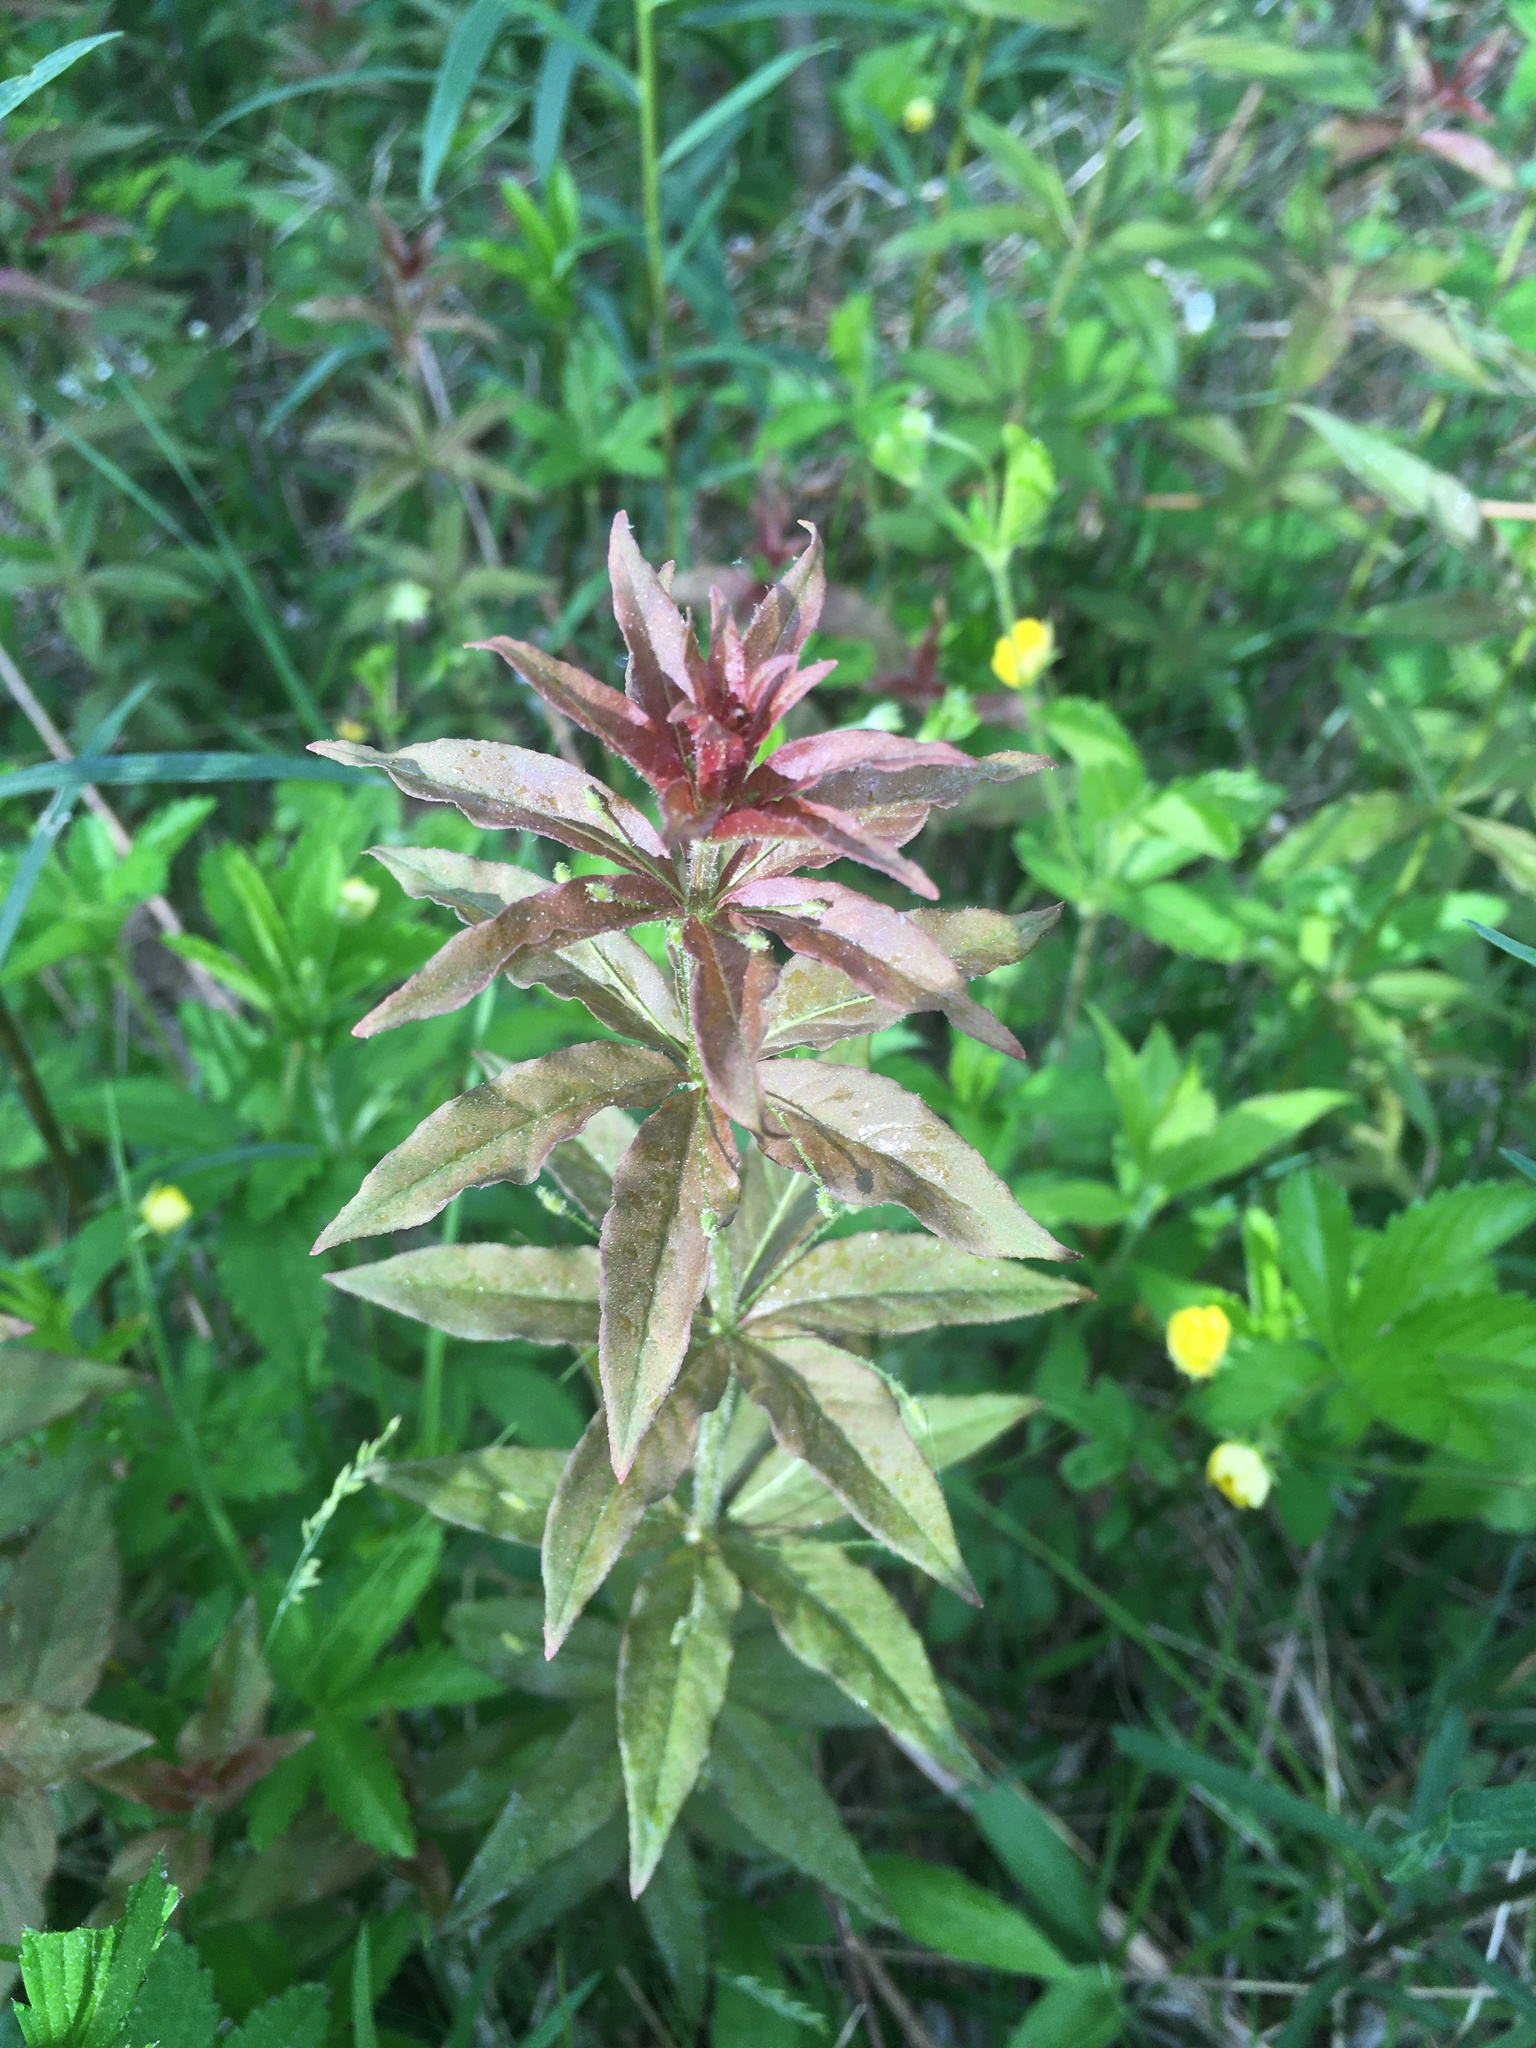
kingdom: Plantae
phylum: Tracheophyta
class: Magnoliopsida
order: Ericales
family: Primulaceae
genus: Lysimachia
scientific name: Lysimachia quadrifolia
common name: Whorled loosestrife
